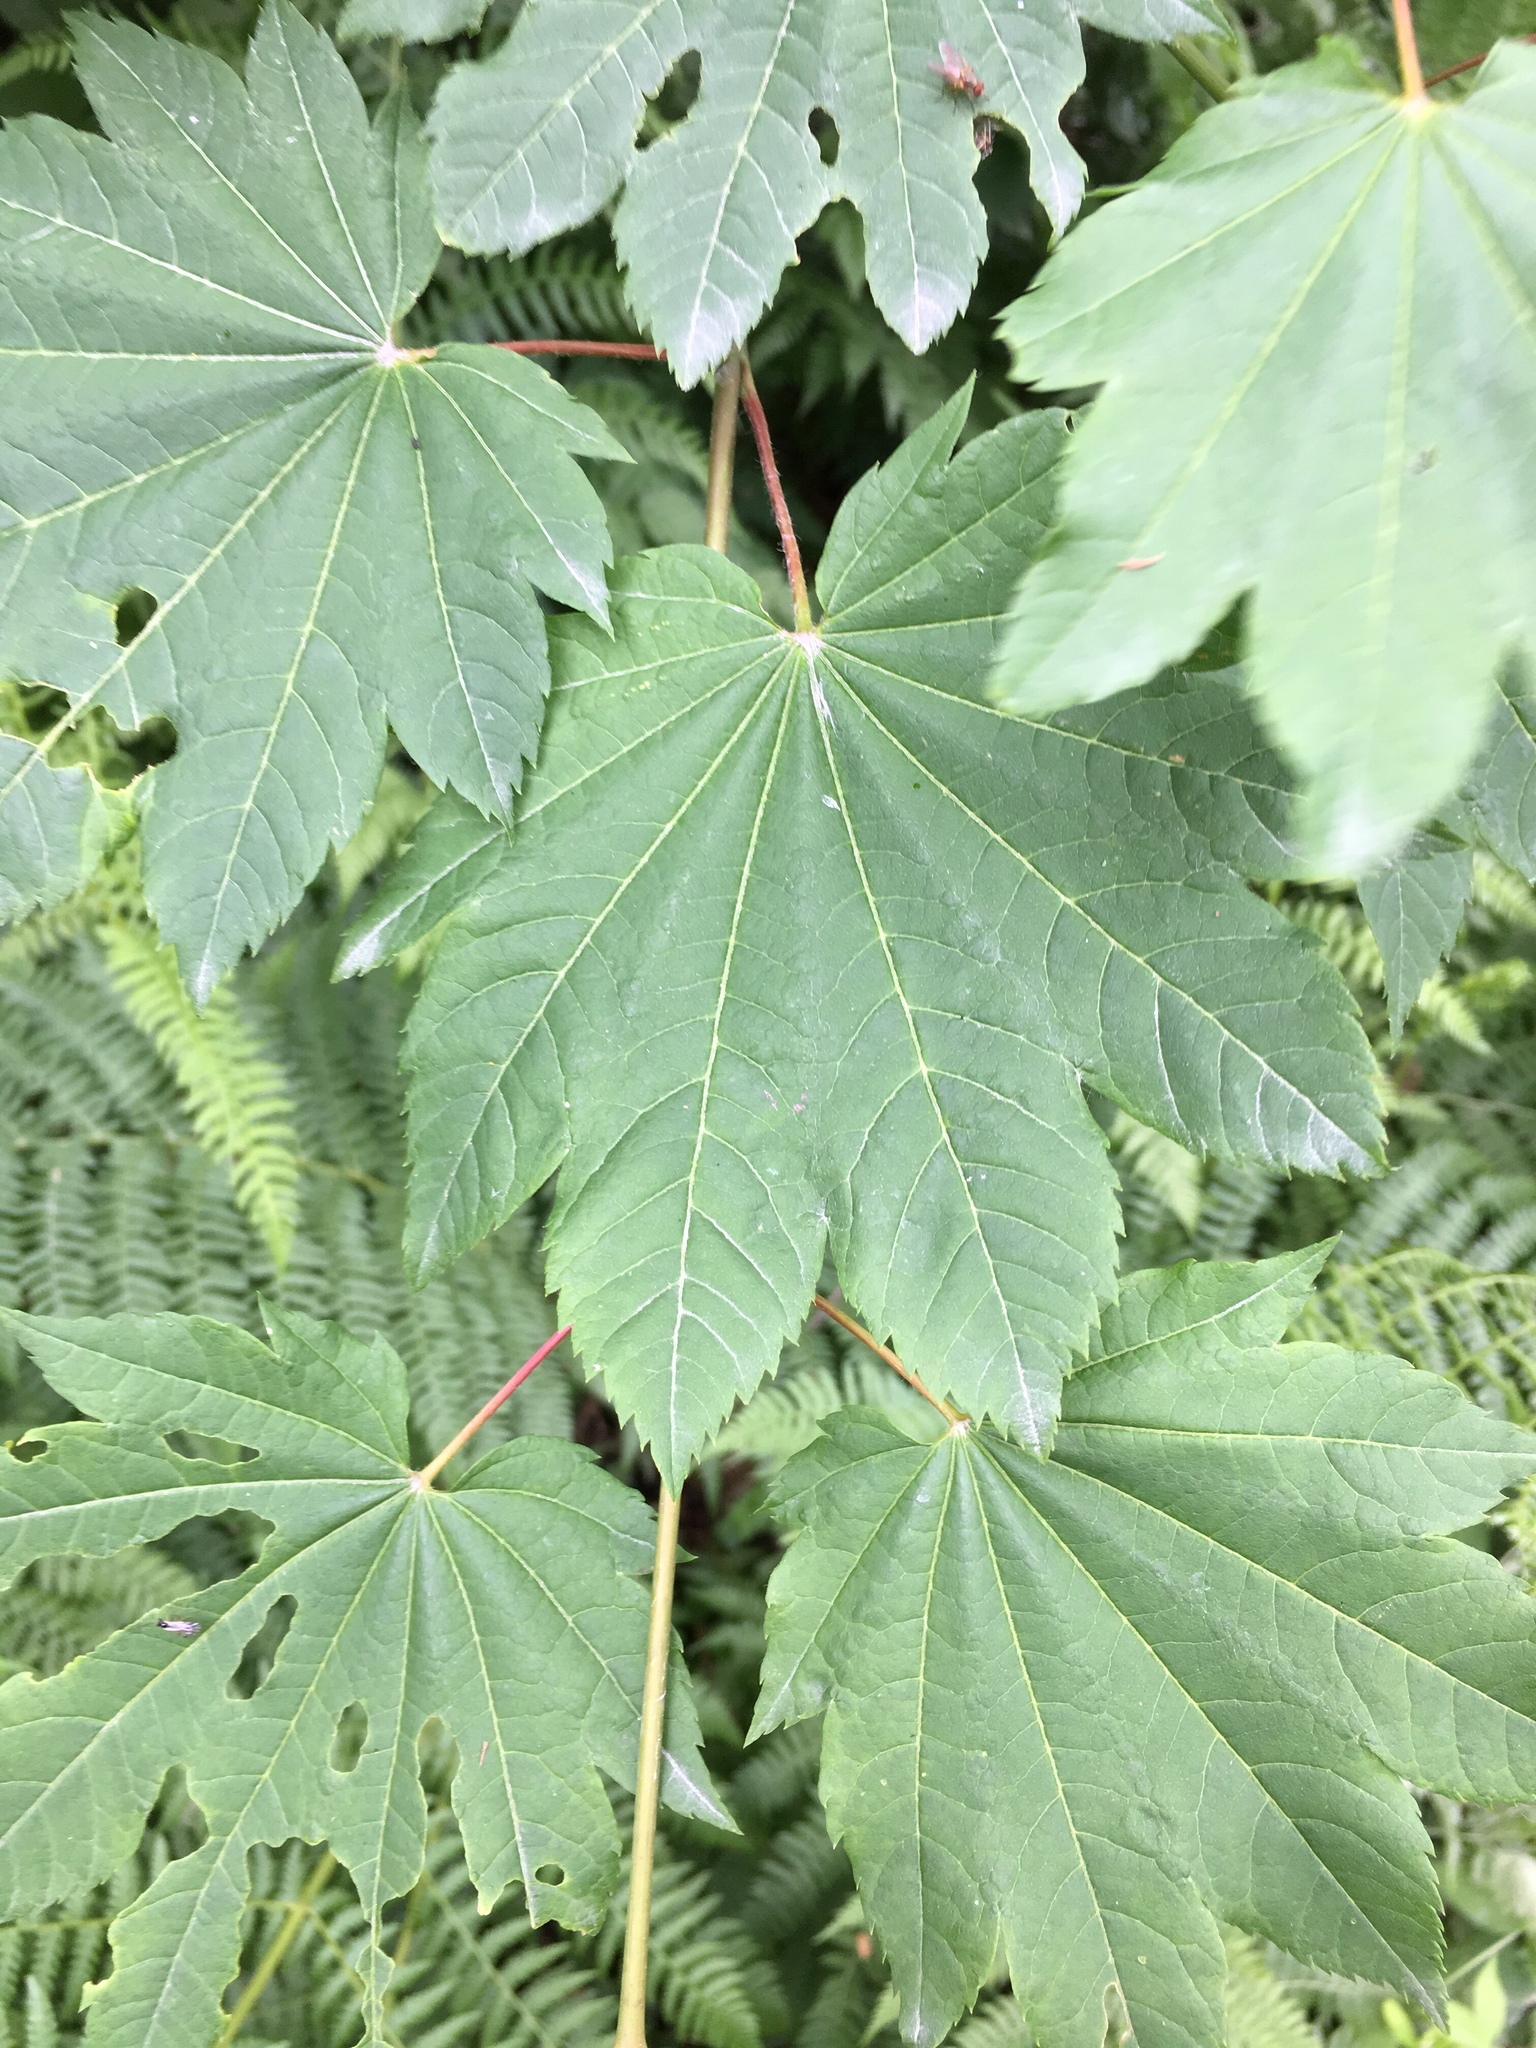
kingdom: Plantae
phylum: Tracheophyta
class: Magnoliopsida
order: Sapindales
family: Sapindaceae
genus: Acer
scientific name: Acer circinatum
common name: Vine maple
